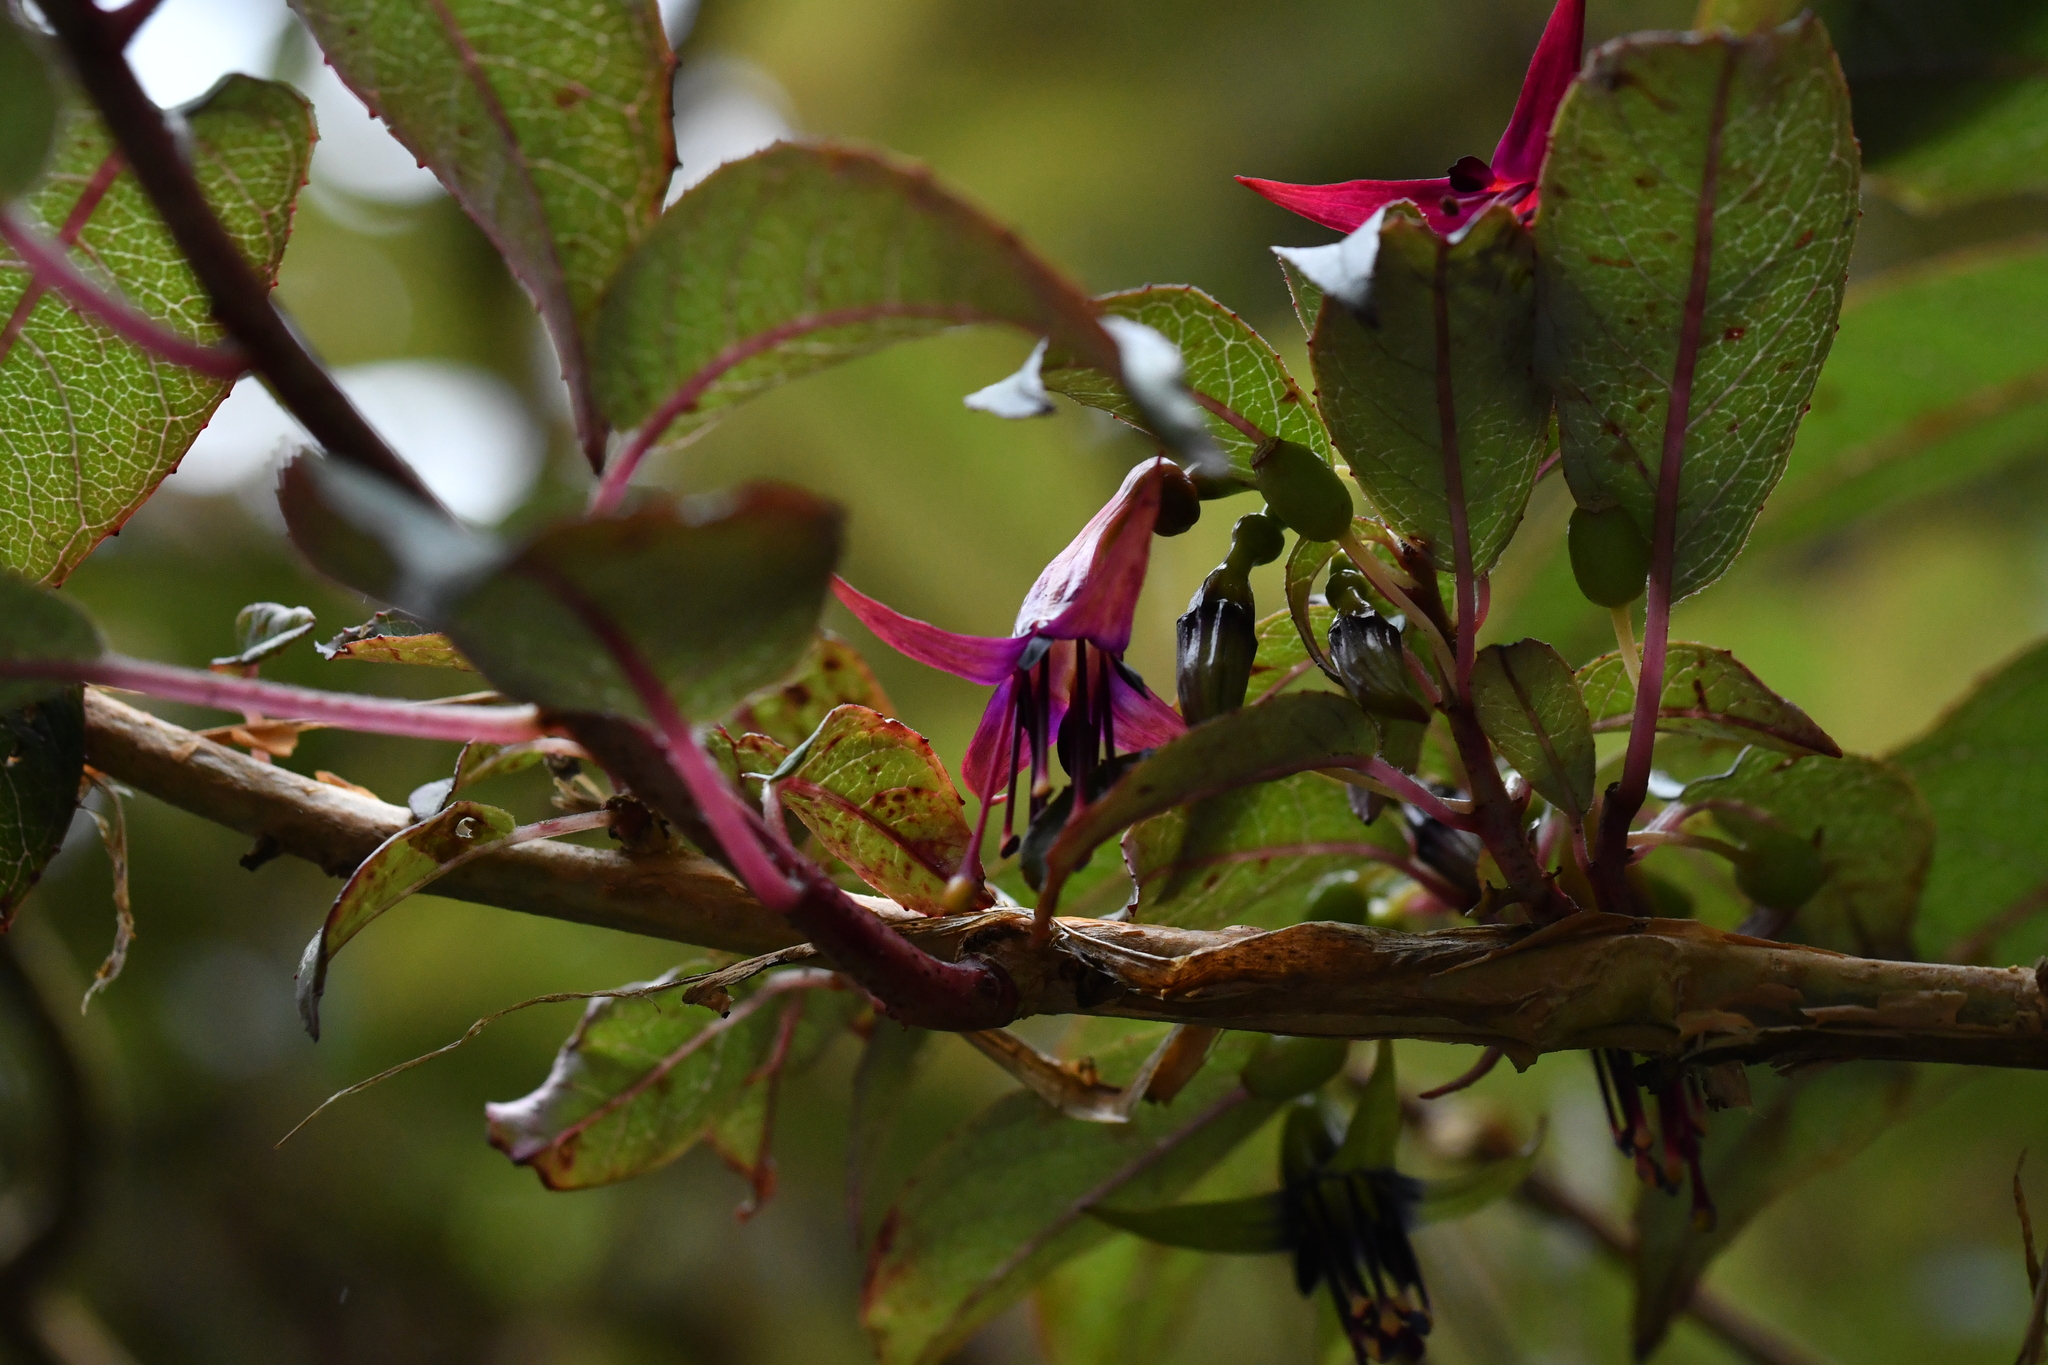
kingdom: Plantae
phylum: Tracheophyta
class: Magnoliopsida
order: Myrtales
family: Onagraceae
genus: Fuchsia
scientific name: Fuchsia excorticata
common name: Tree fuchsia
